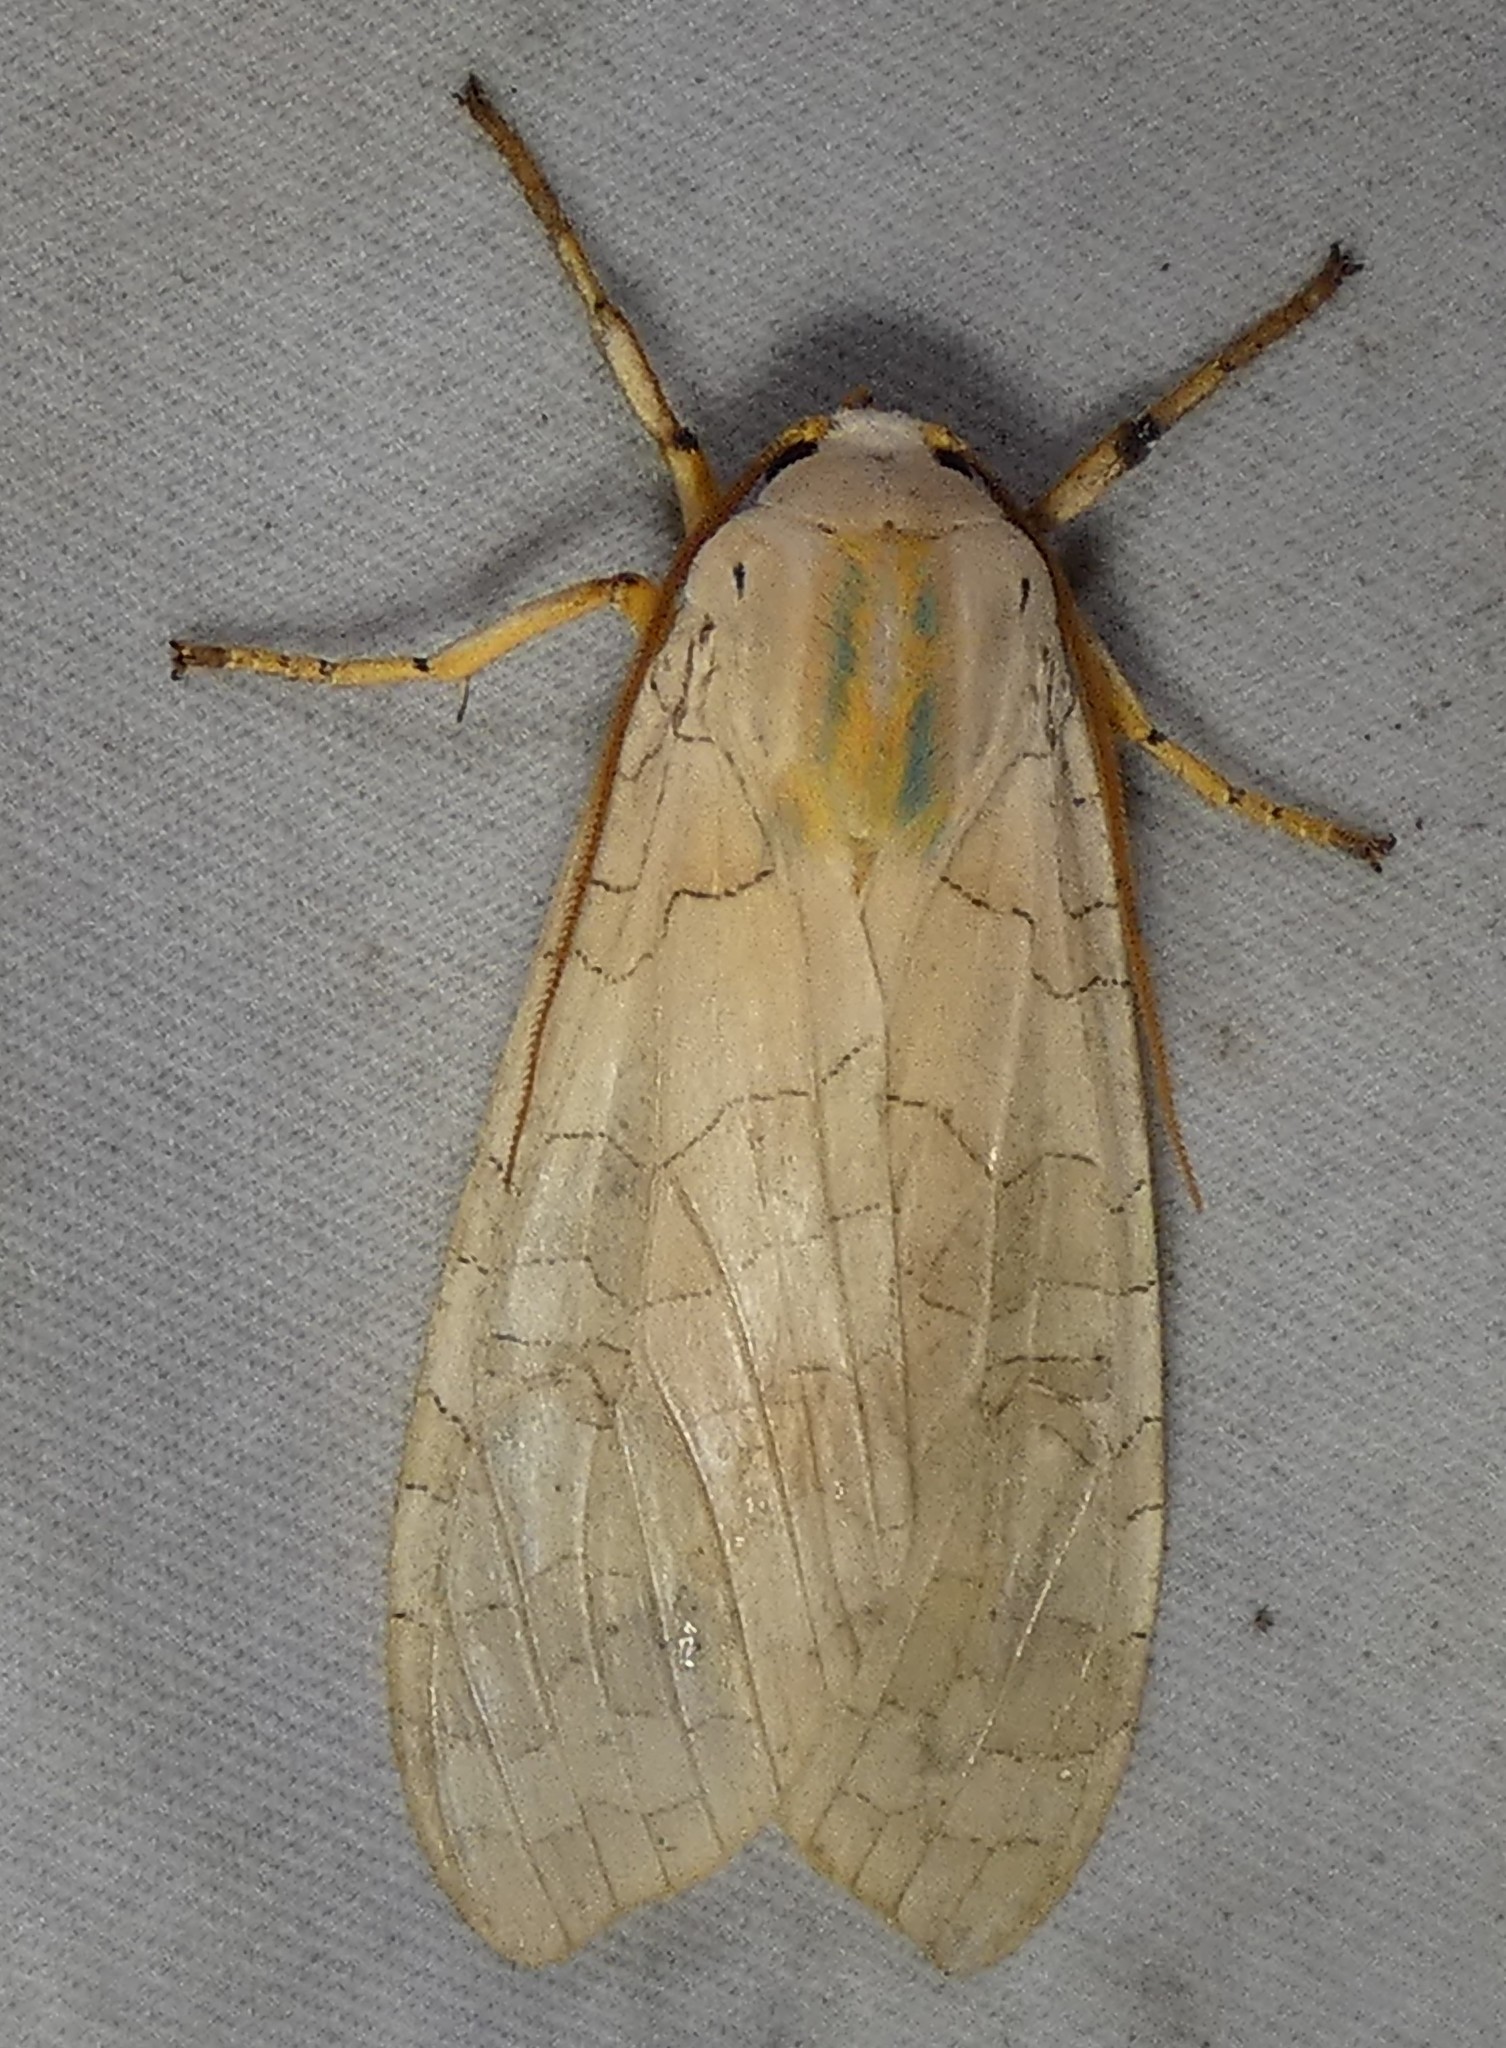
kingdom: Animalia
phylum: Arthropoda
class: Insecta
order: Lepidoptera
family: Erebidae
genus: Halysidota
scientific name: Halysidota
